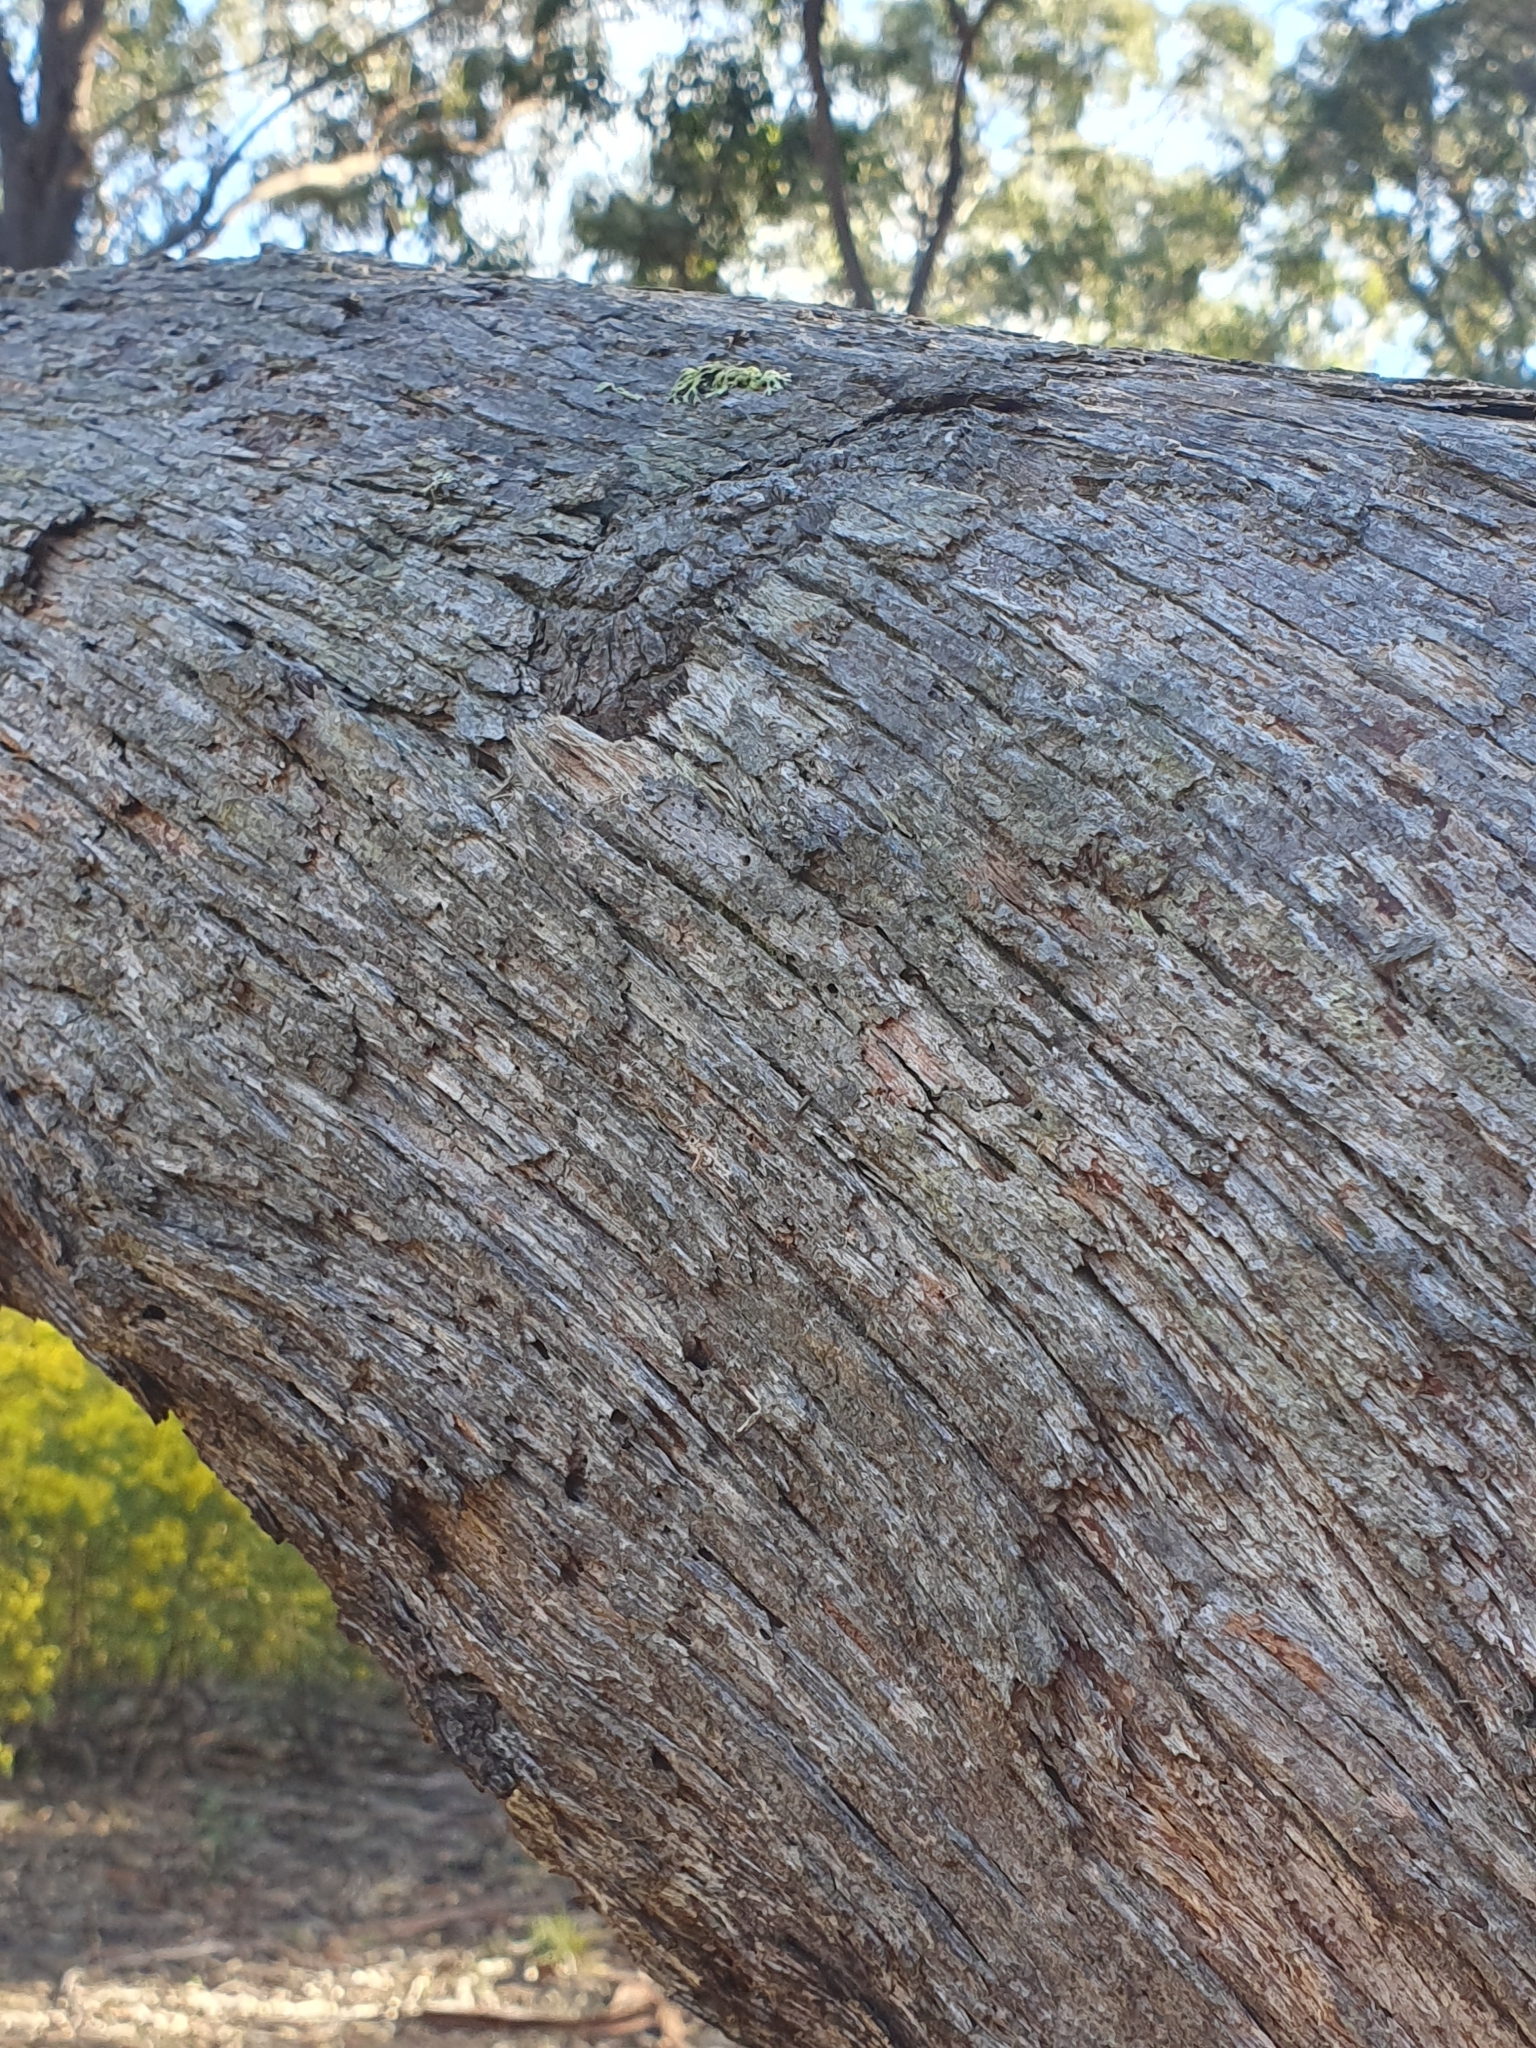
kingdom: Plantae
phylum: Tracheophyta
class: Magnoliopsida
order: Myrtales
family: Myrtaceae
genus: Eucalyptus
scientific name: Eucalyptus piperita
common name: Sydney peppermint
